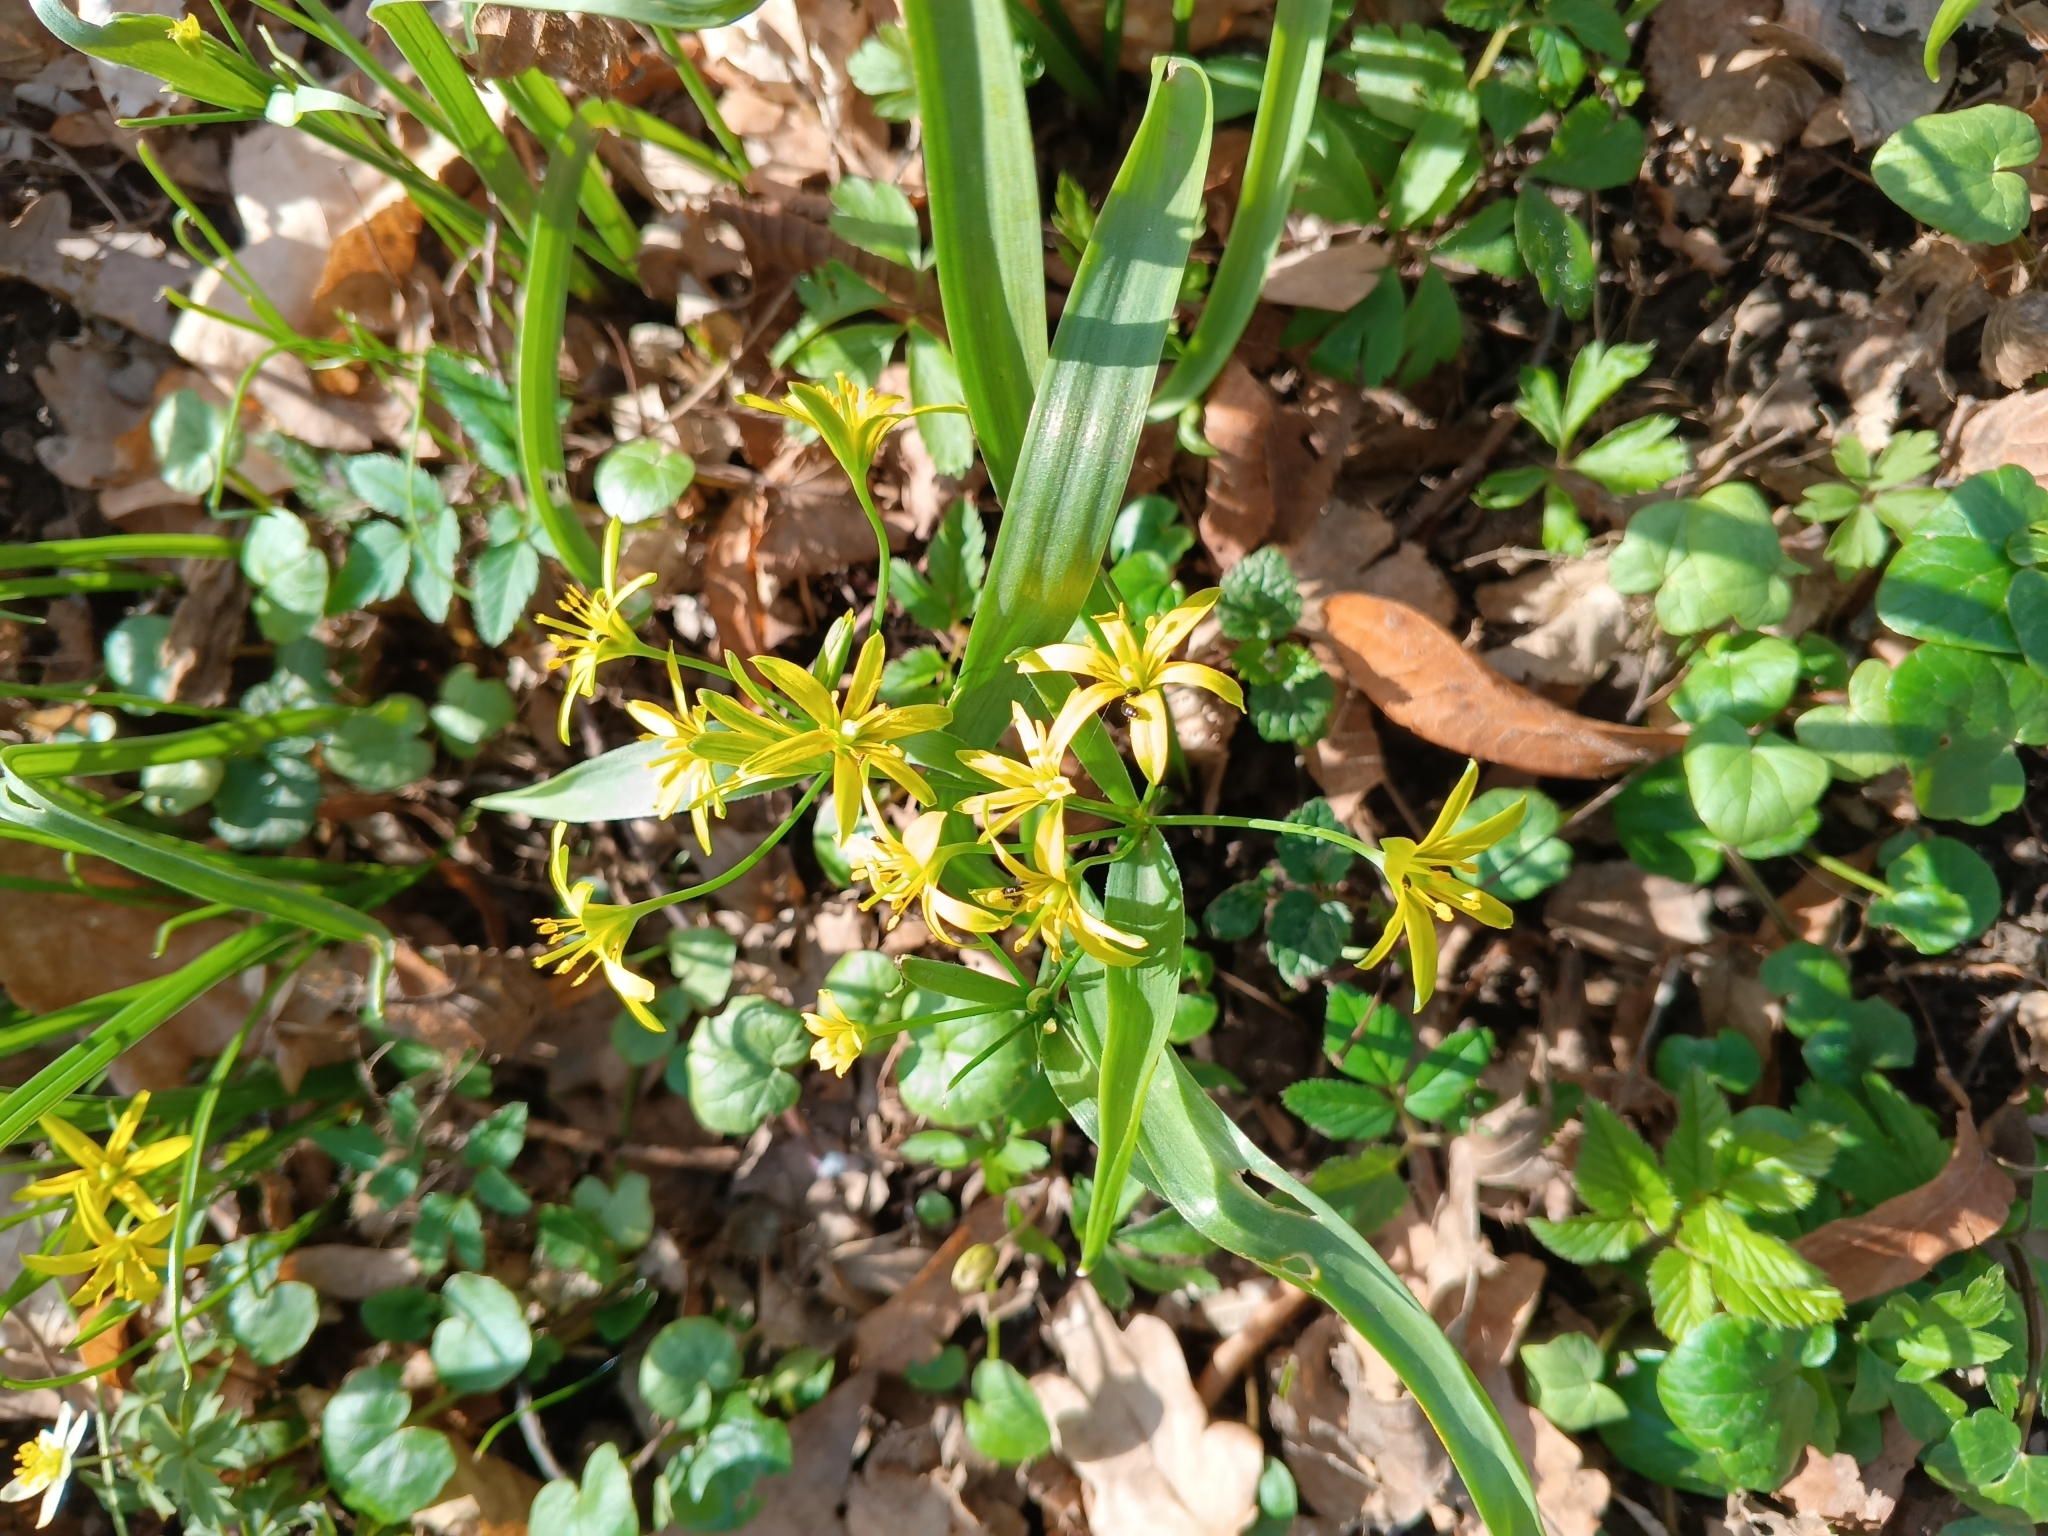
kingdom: Plantae
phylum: Tracheophyta
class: Liliopsida
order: Liliales
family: Liliaceae
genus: Gagea
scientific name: Gagea lutea
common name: Yellow star-of-bethlehem
